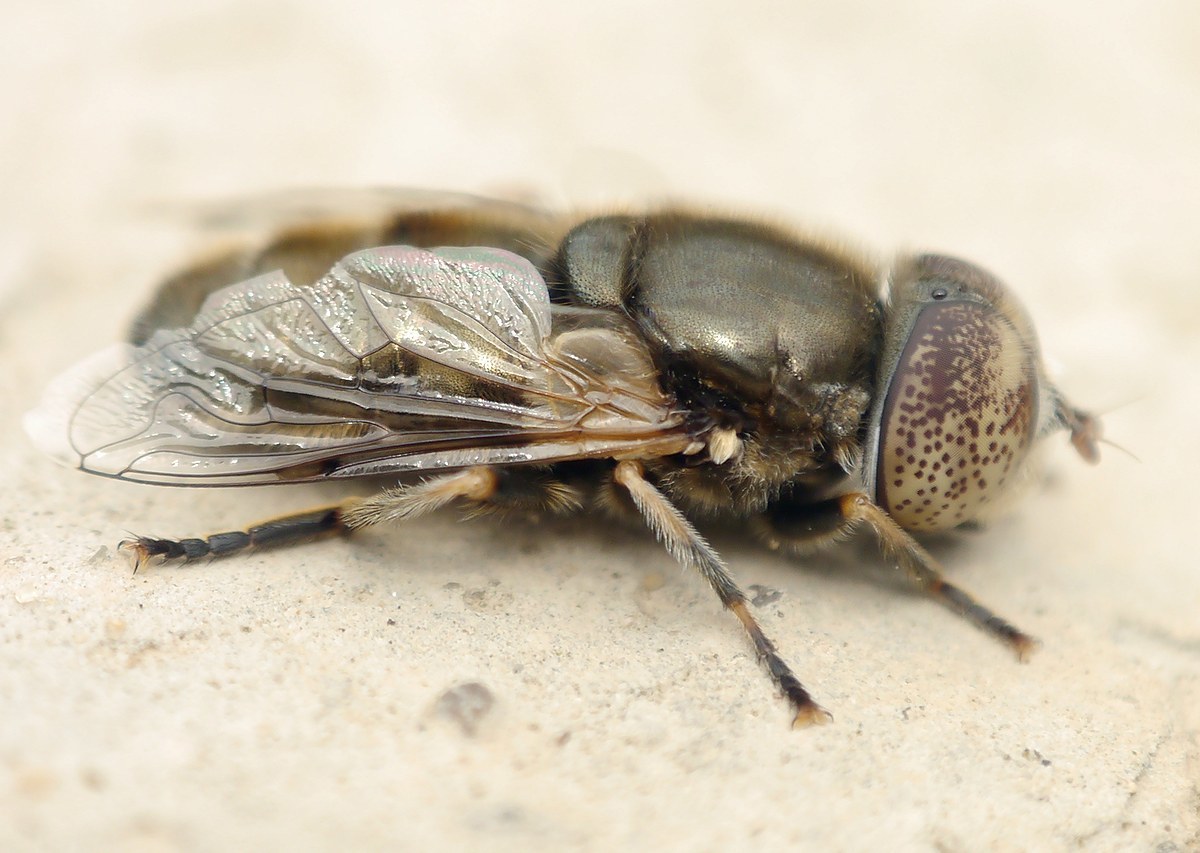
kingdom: Animalia
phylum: Arthropoda
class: Insecta
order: Diptera
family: Syrphidae
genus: Eristalinus
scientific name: Eristalinus aeneus
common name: Syrphid fly
